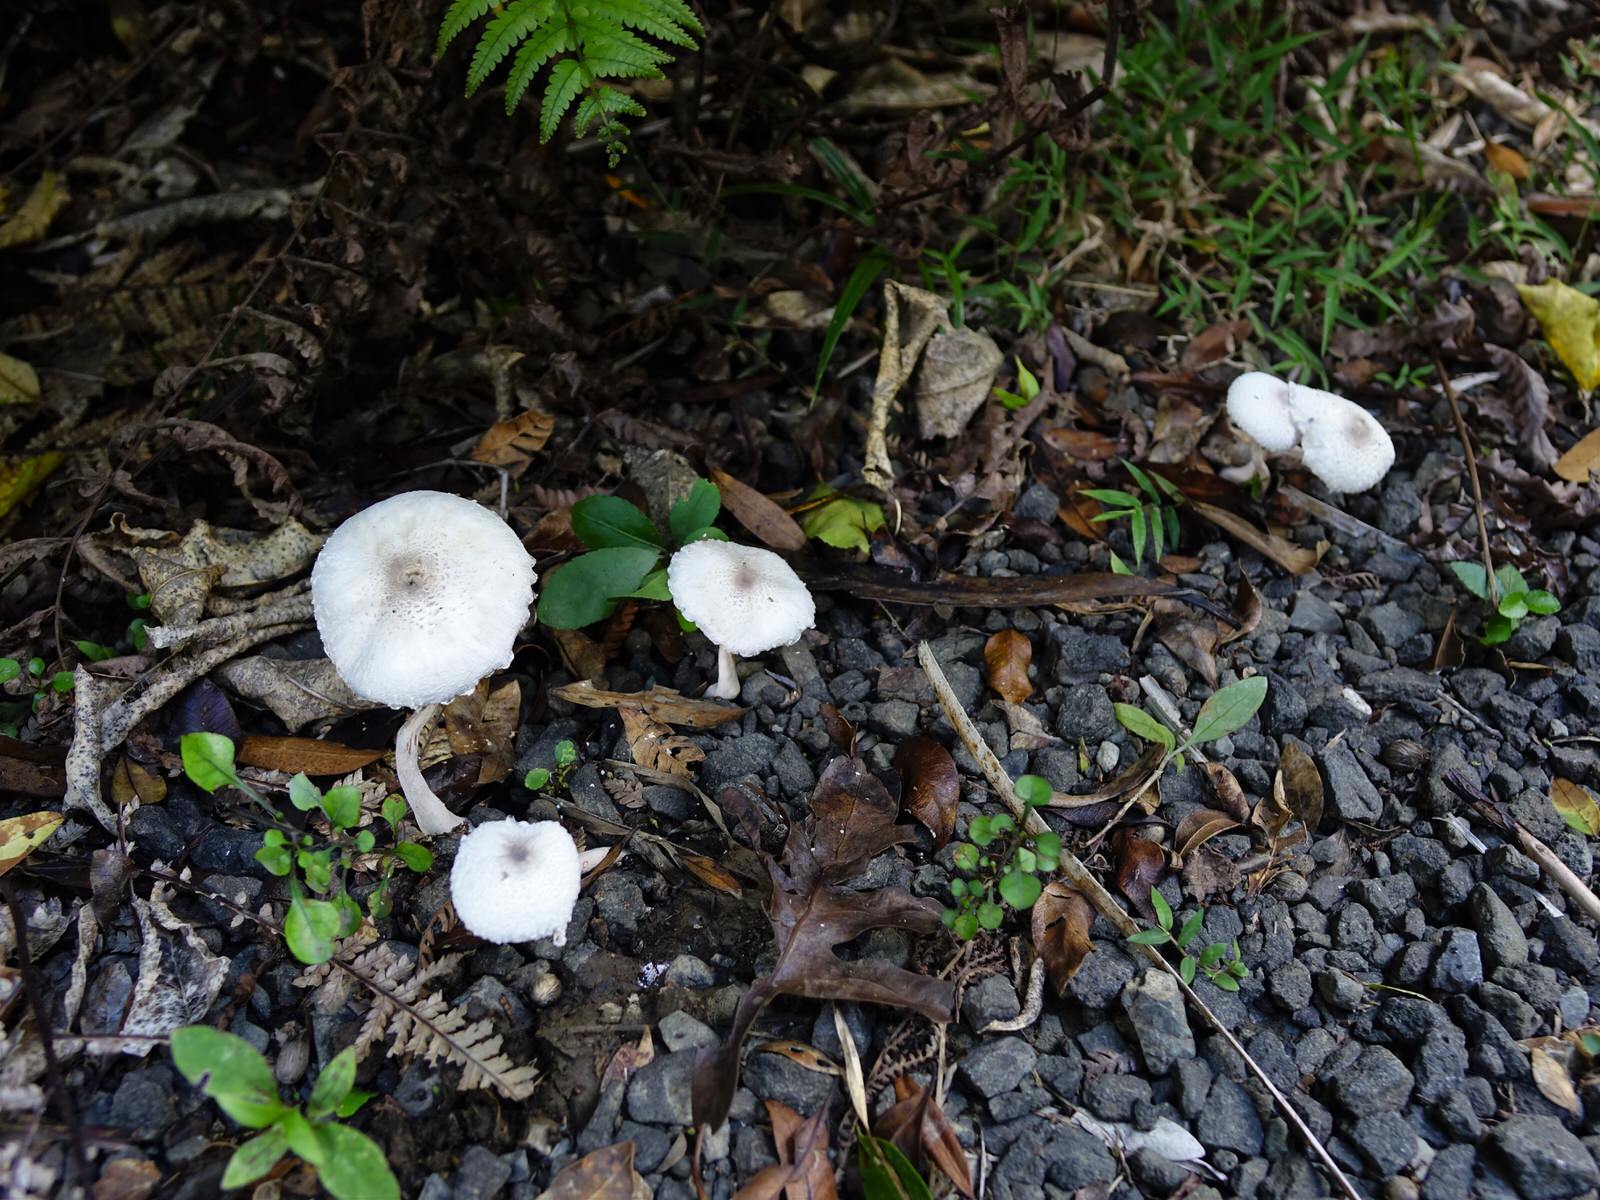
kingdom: Fungi
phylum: Basidiomycota
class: Agaricomycetes
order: Agaricales
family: Agaricaceae
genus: Leucocoprinus
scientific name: Leucocoprinus cepistipes
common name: Onion-stalk parasol
